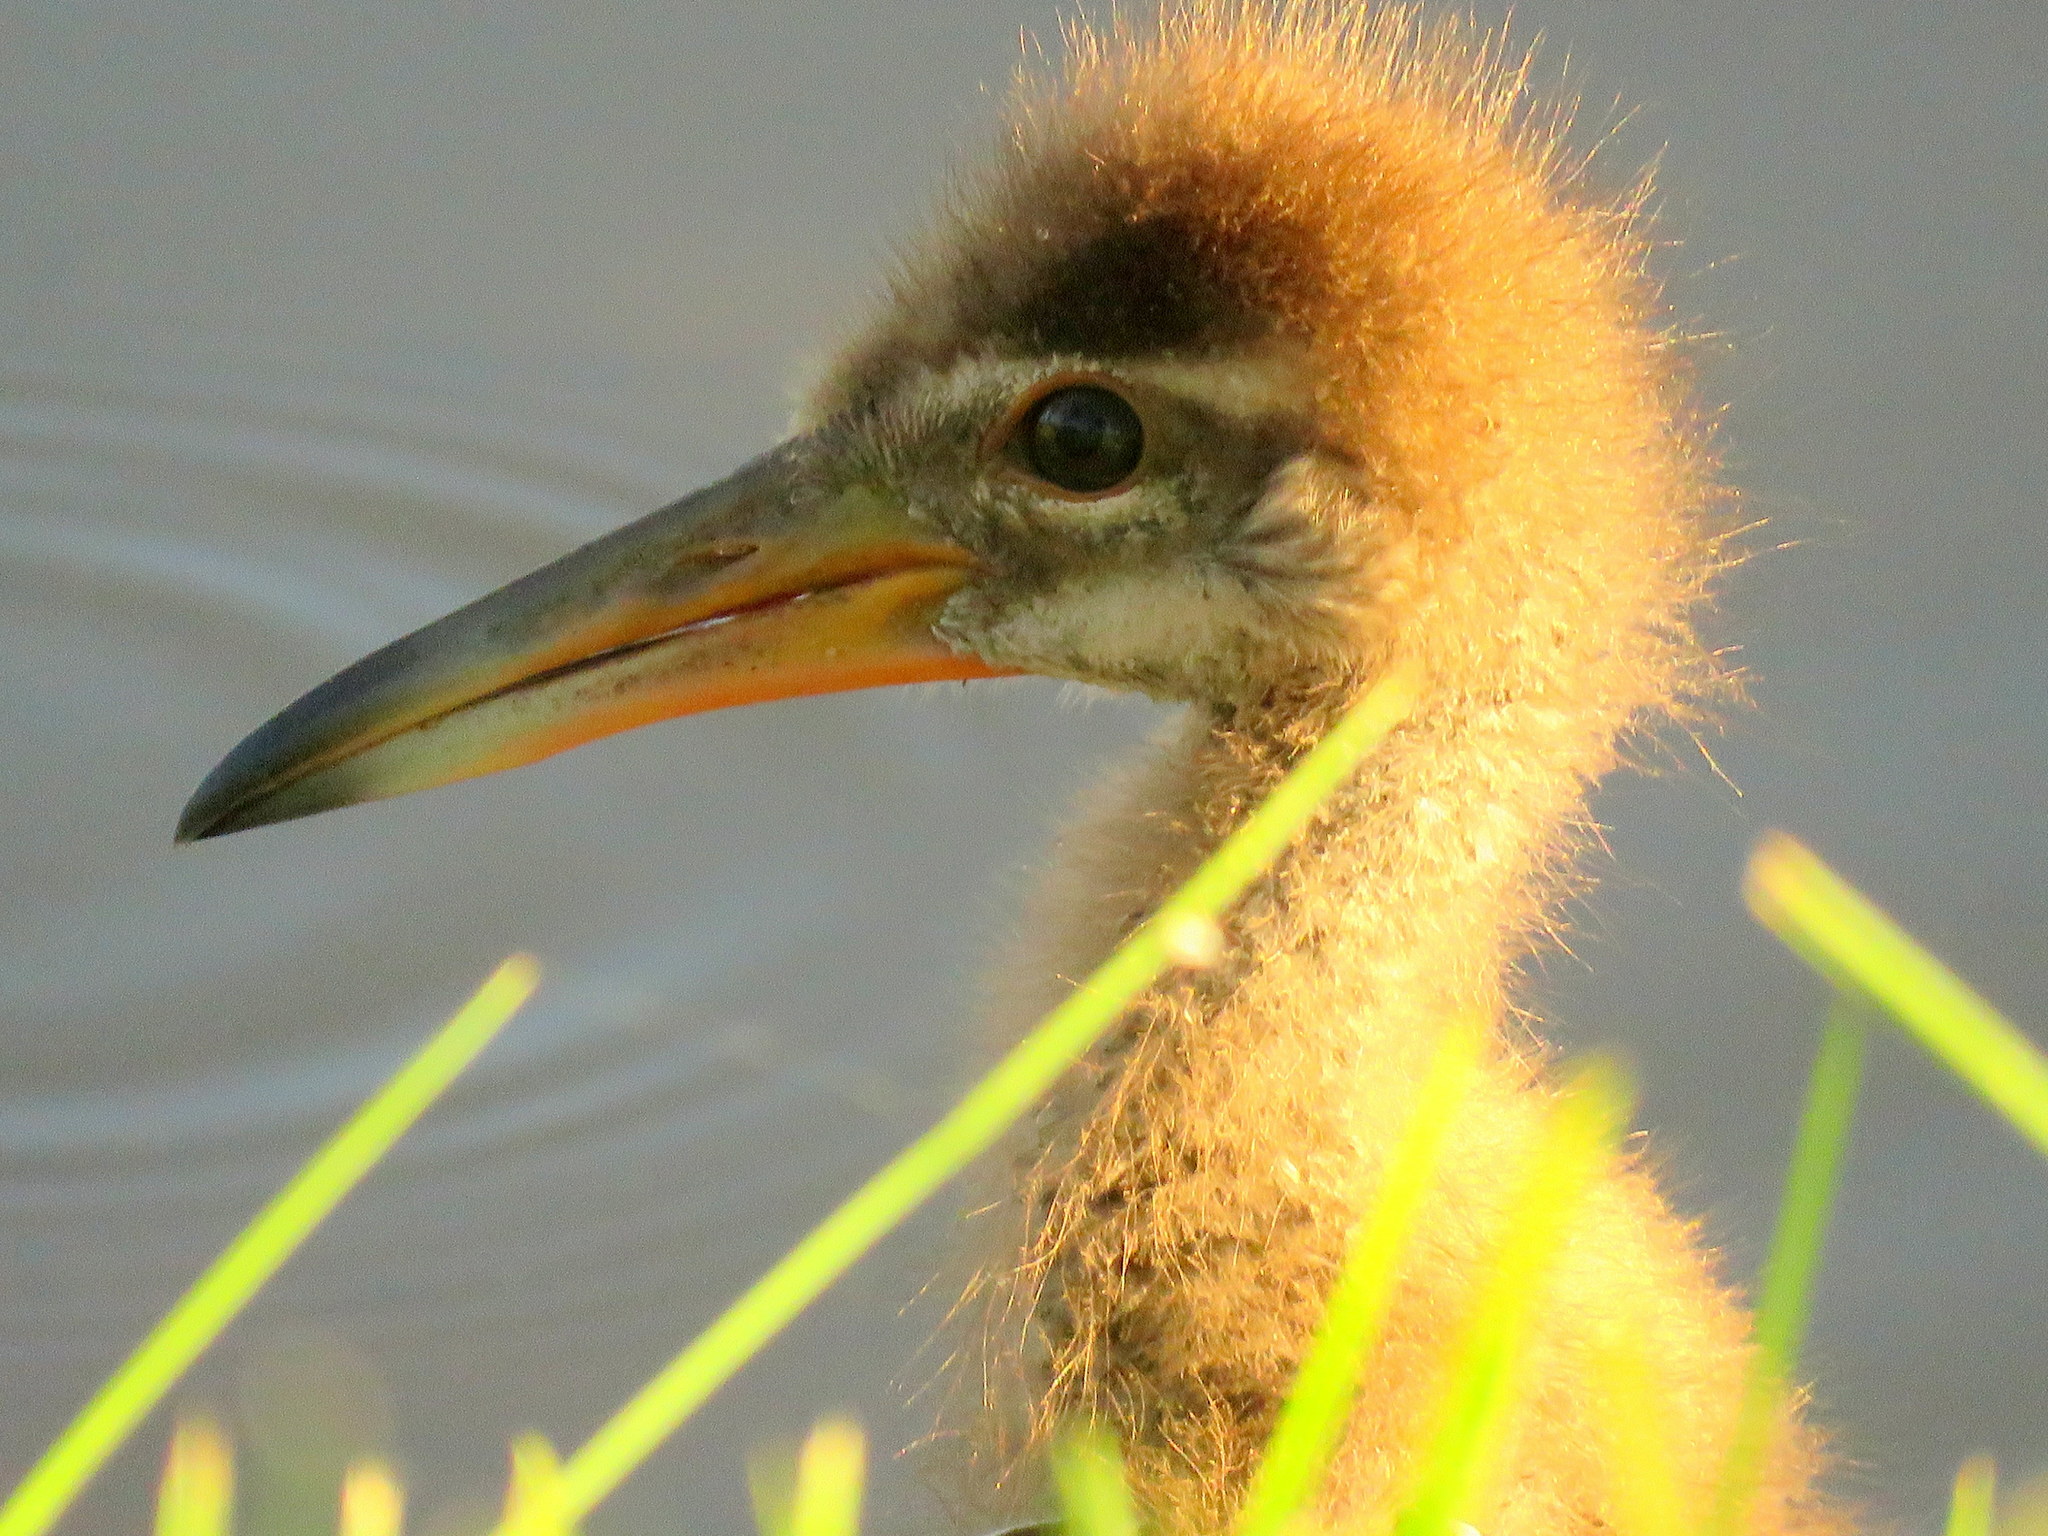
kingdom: Animalia
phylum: Chordata
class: Aves
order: Gruiformes
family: Aramidae
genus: Aramus
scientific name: Aramus guarauna
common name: Limpkin
